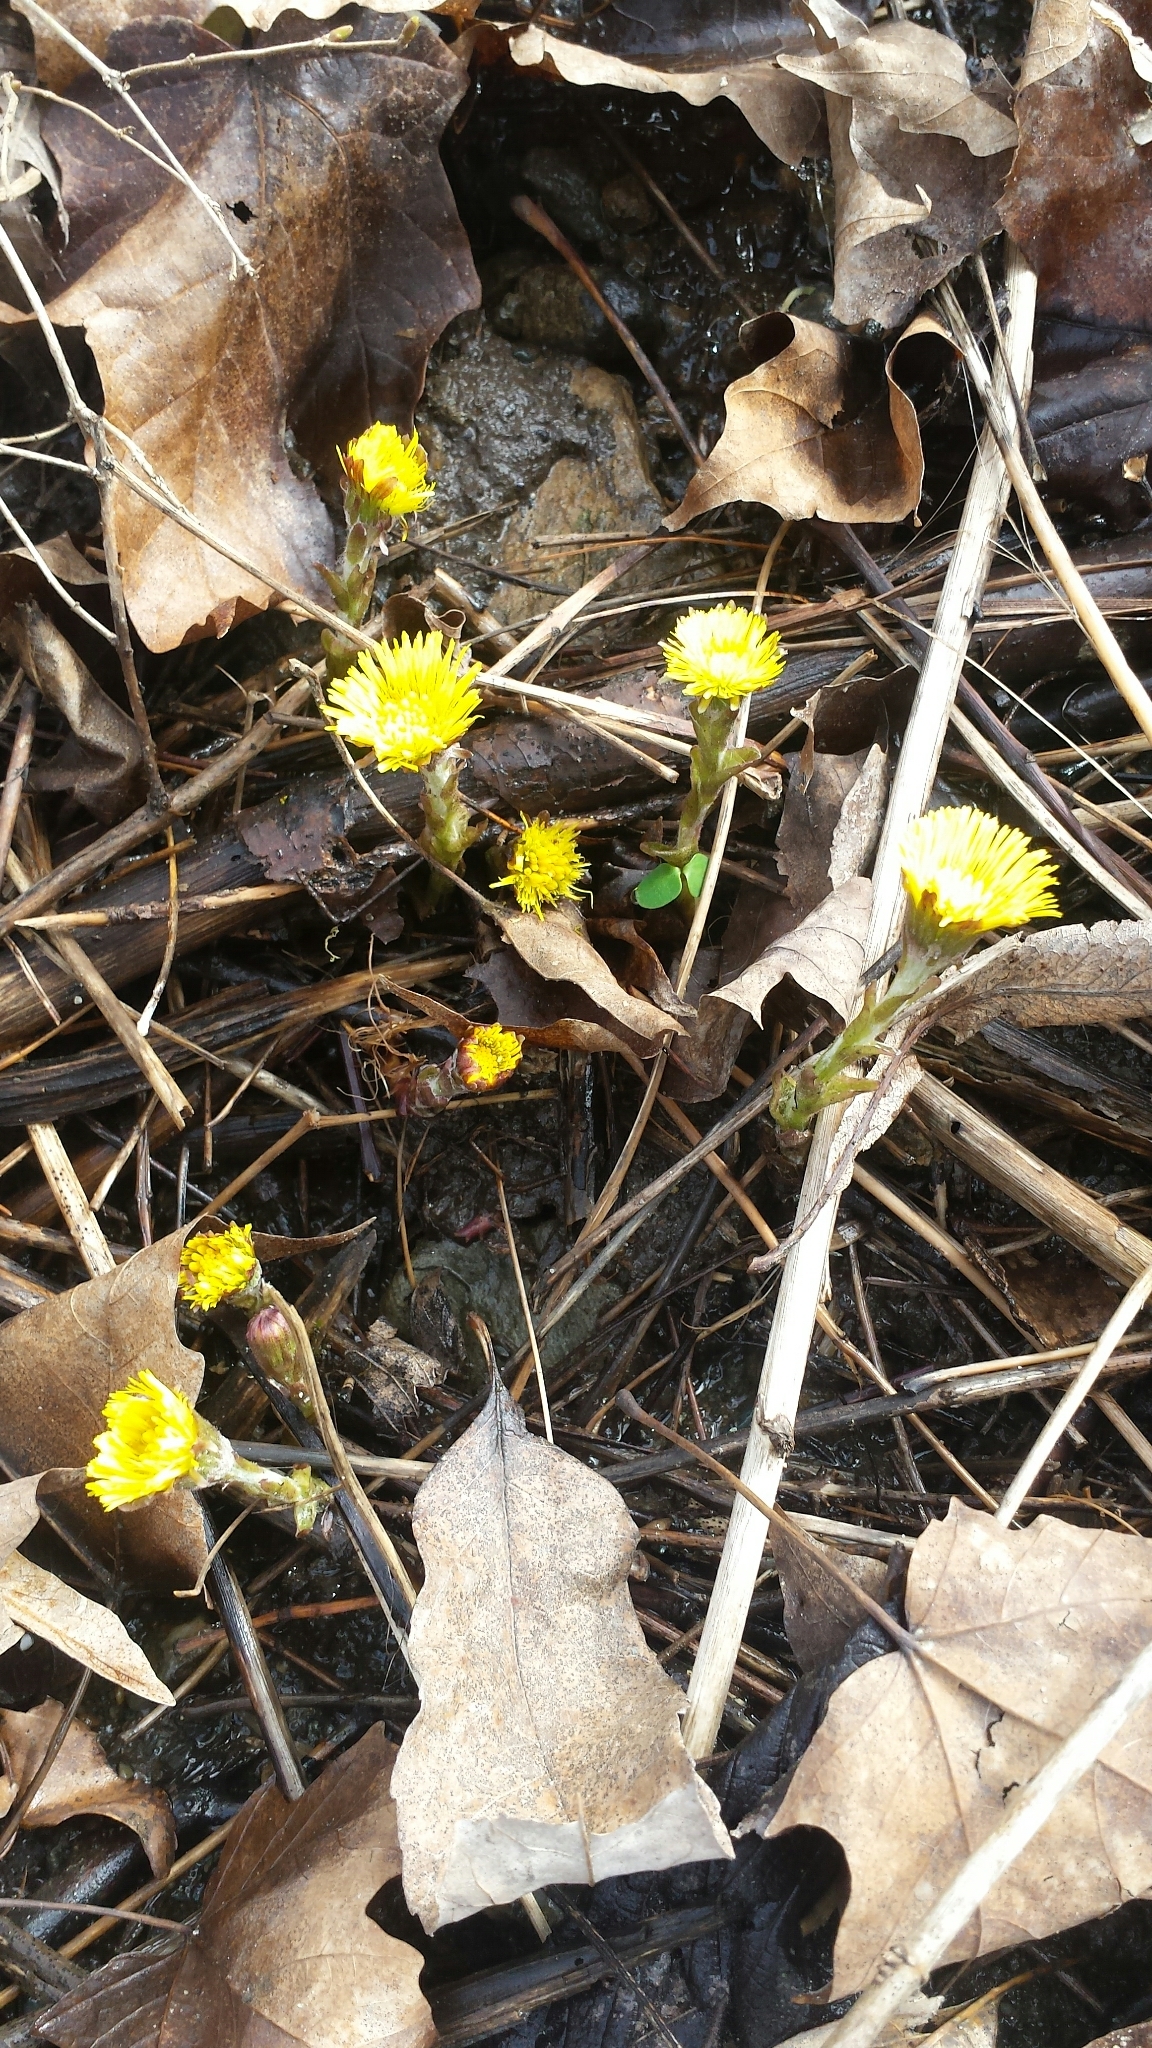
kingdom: Plantae
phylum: Tracheophyta
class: Magnoliopsida
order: Asterales
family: Asteraceae
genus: Tussilago
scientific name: Tussilago farfara
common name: Coltsfoot
